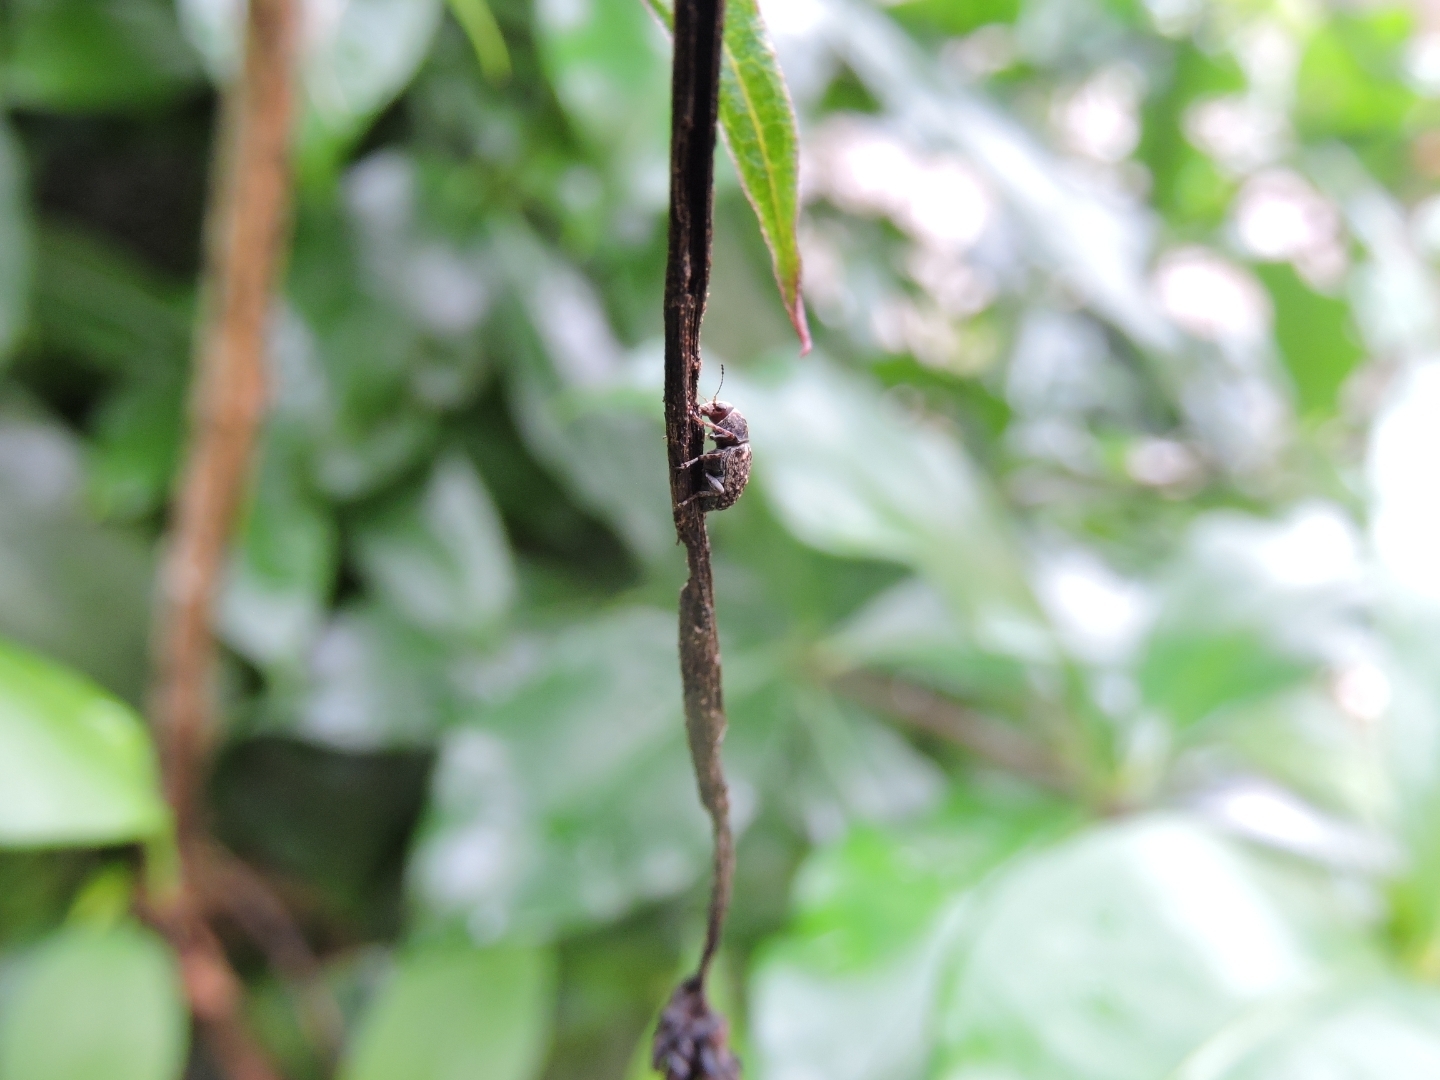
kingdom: Animalia
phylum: Arthropoda
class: Insecta
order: Coleoptera
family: Anthribidae
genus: Araecerus
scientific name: Araecerus fasciculatus
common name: Coffee bean weevil
